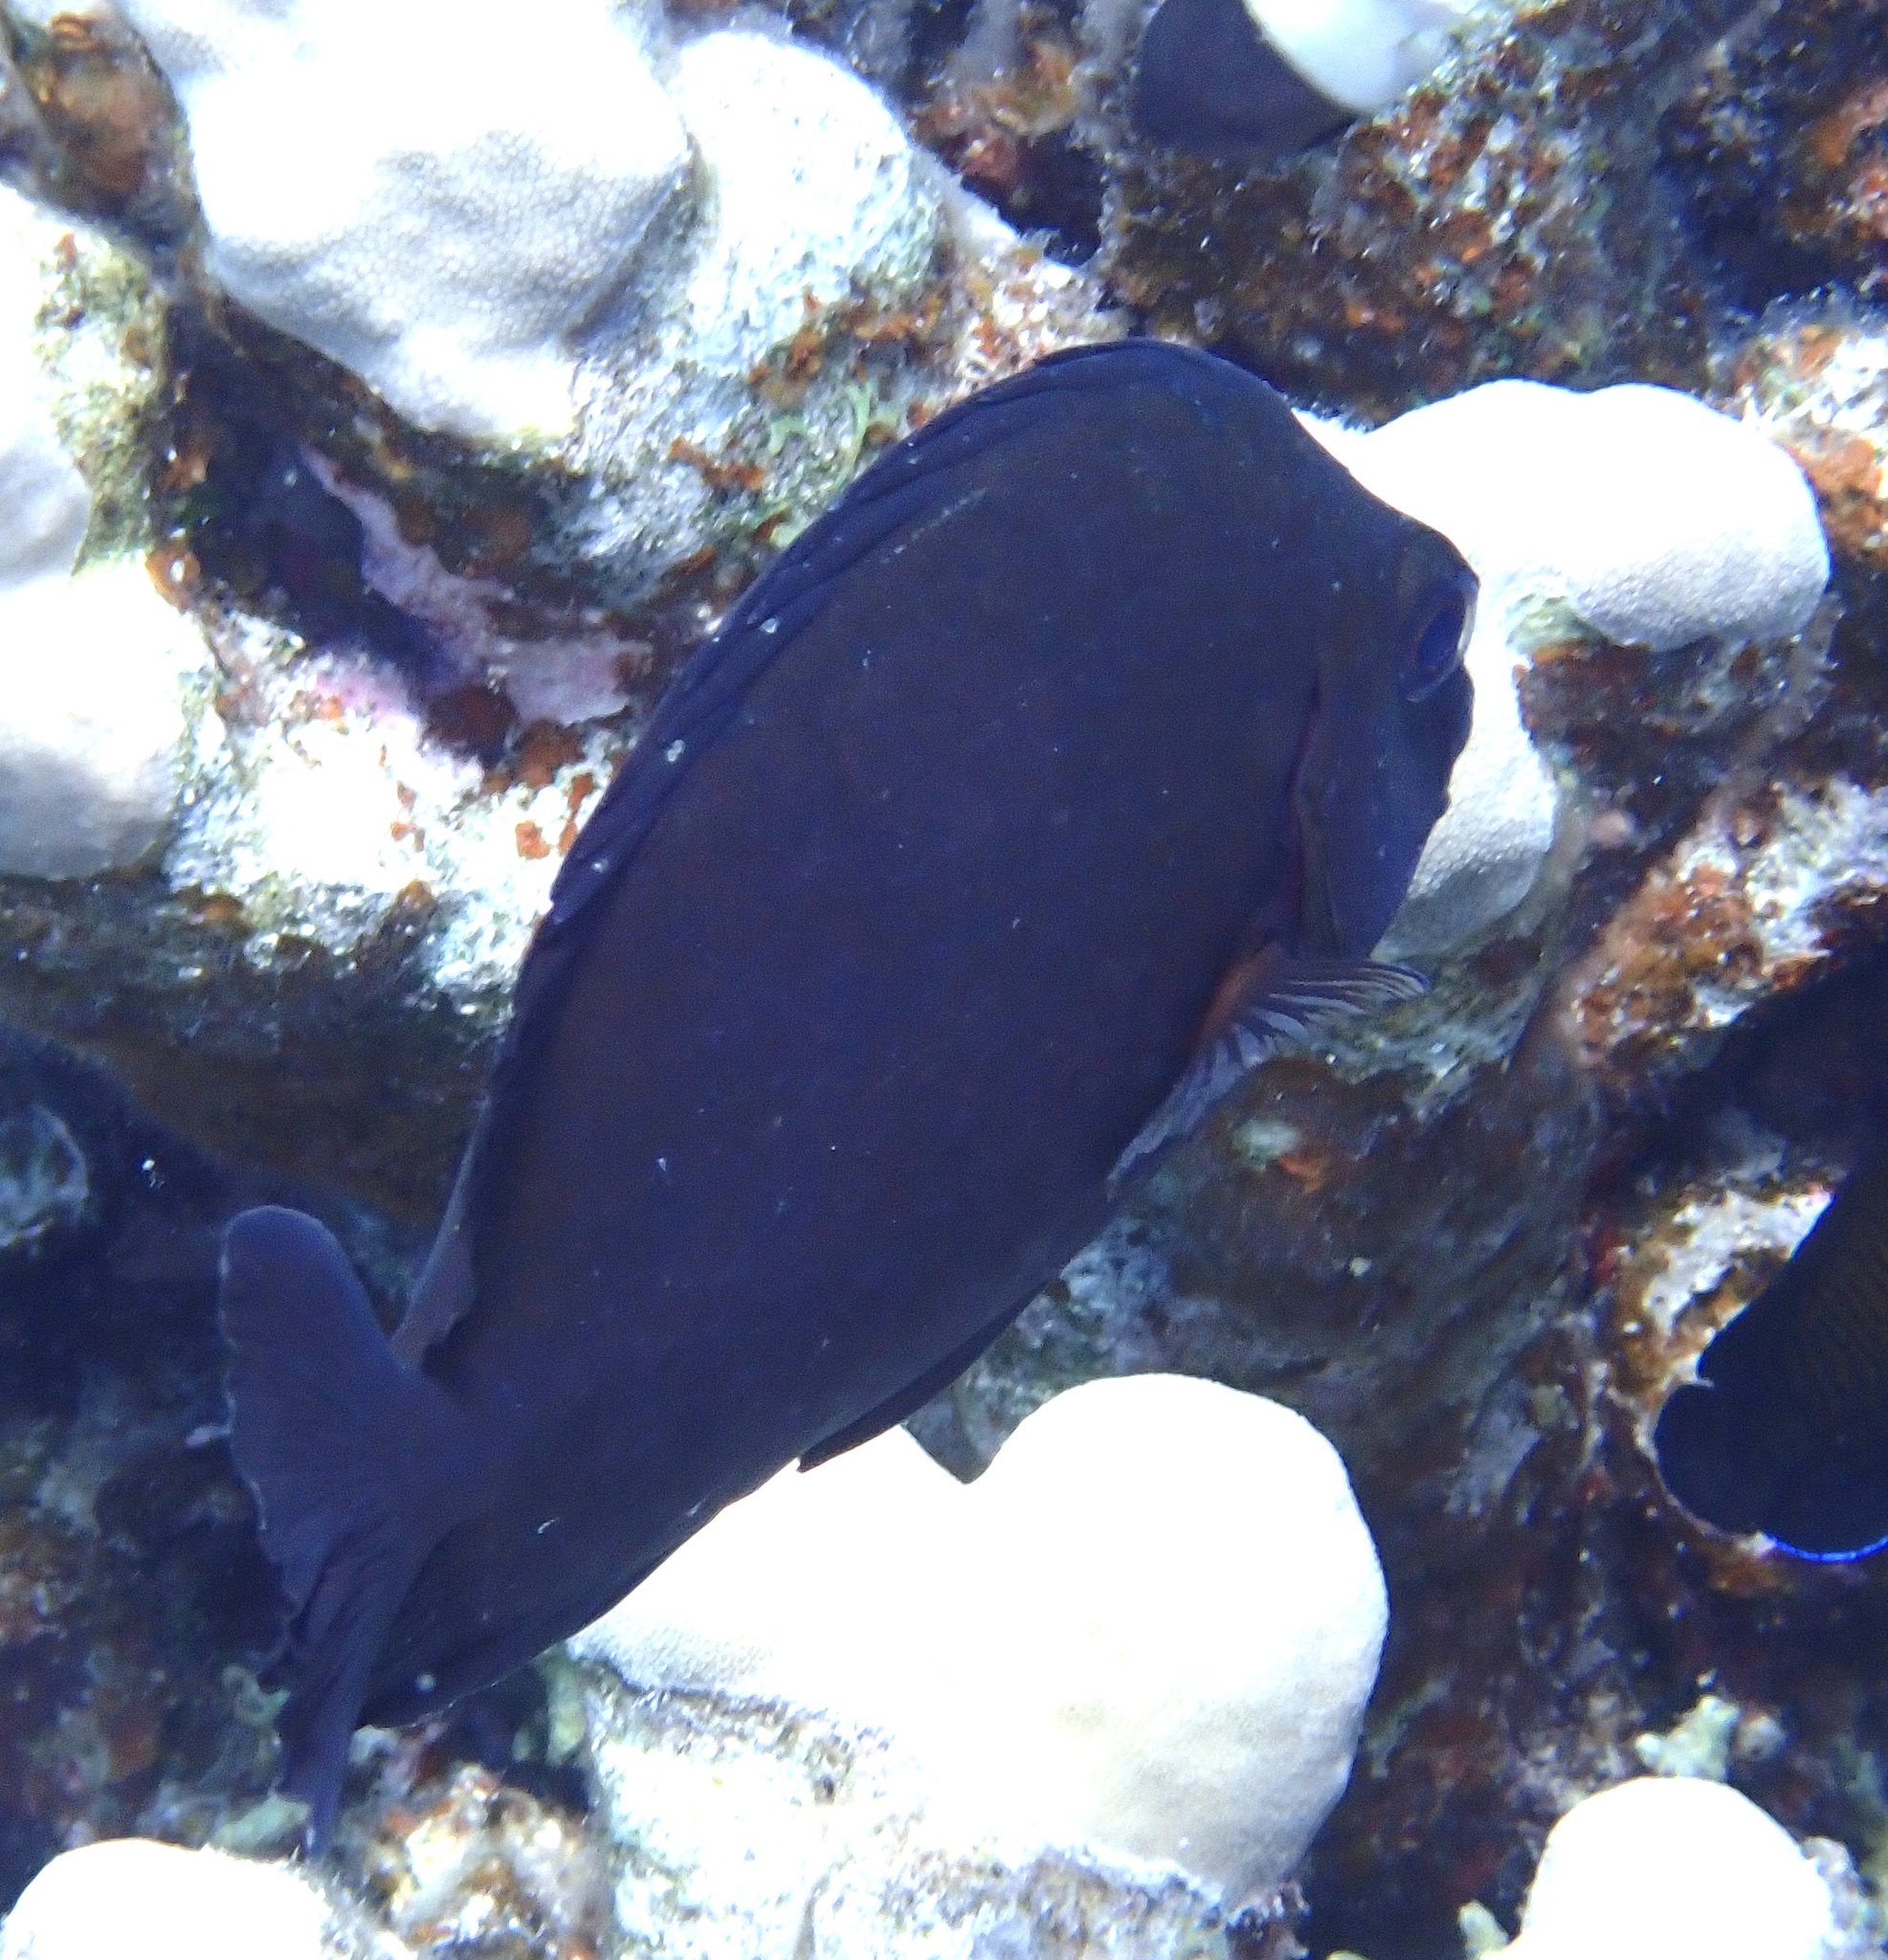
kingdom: Animalia
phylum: Chordata
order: Perciformes
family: Siganidae
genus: Siganus
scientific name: Siganus luridus
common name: Dusky spinefoot
